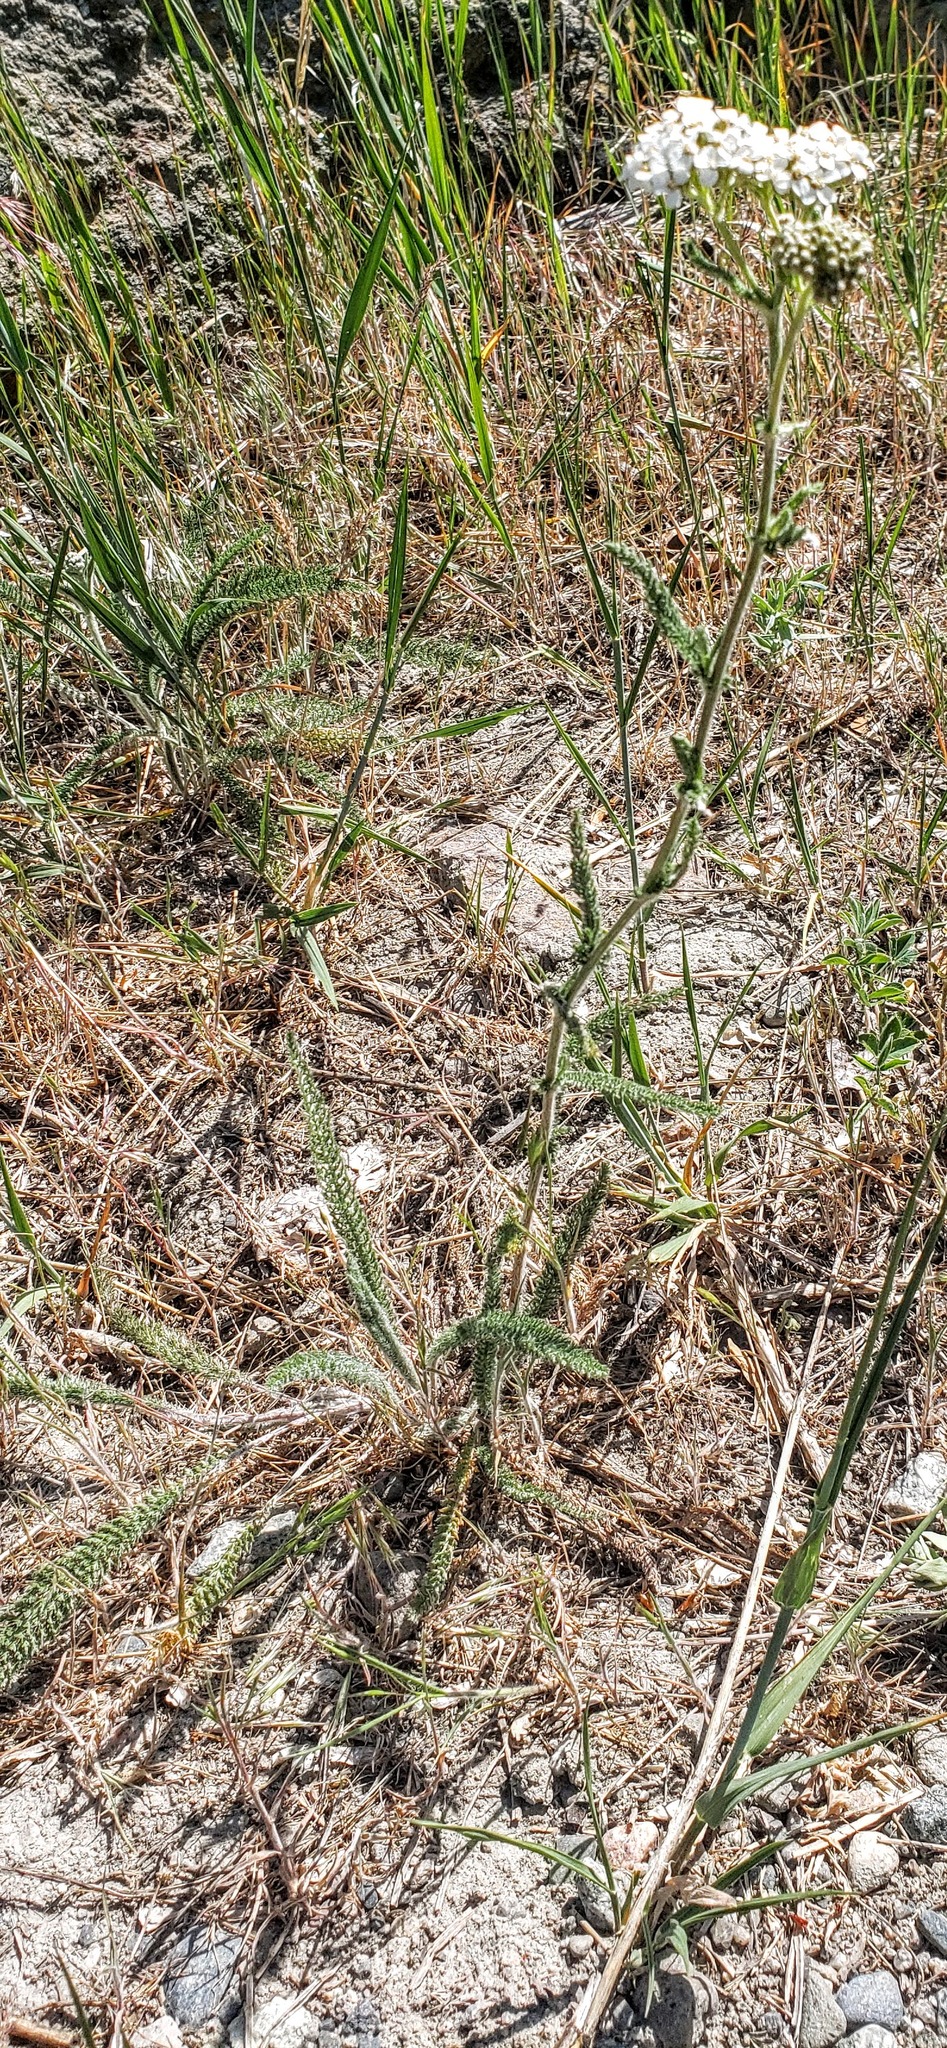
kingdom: Plantae
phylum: Tracheophyta
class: Magnoliopsida
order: Asterales
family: Asteraceae
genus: Achillea
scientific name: Achillea millefolium
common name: Yarrow
